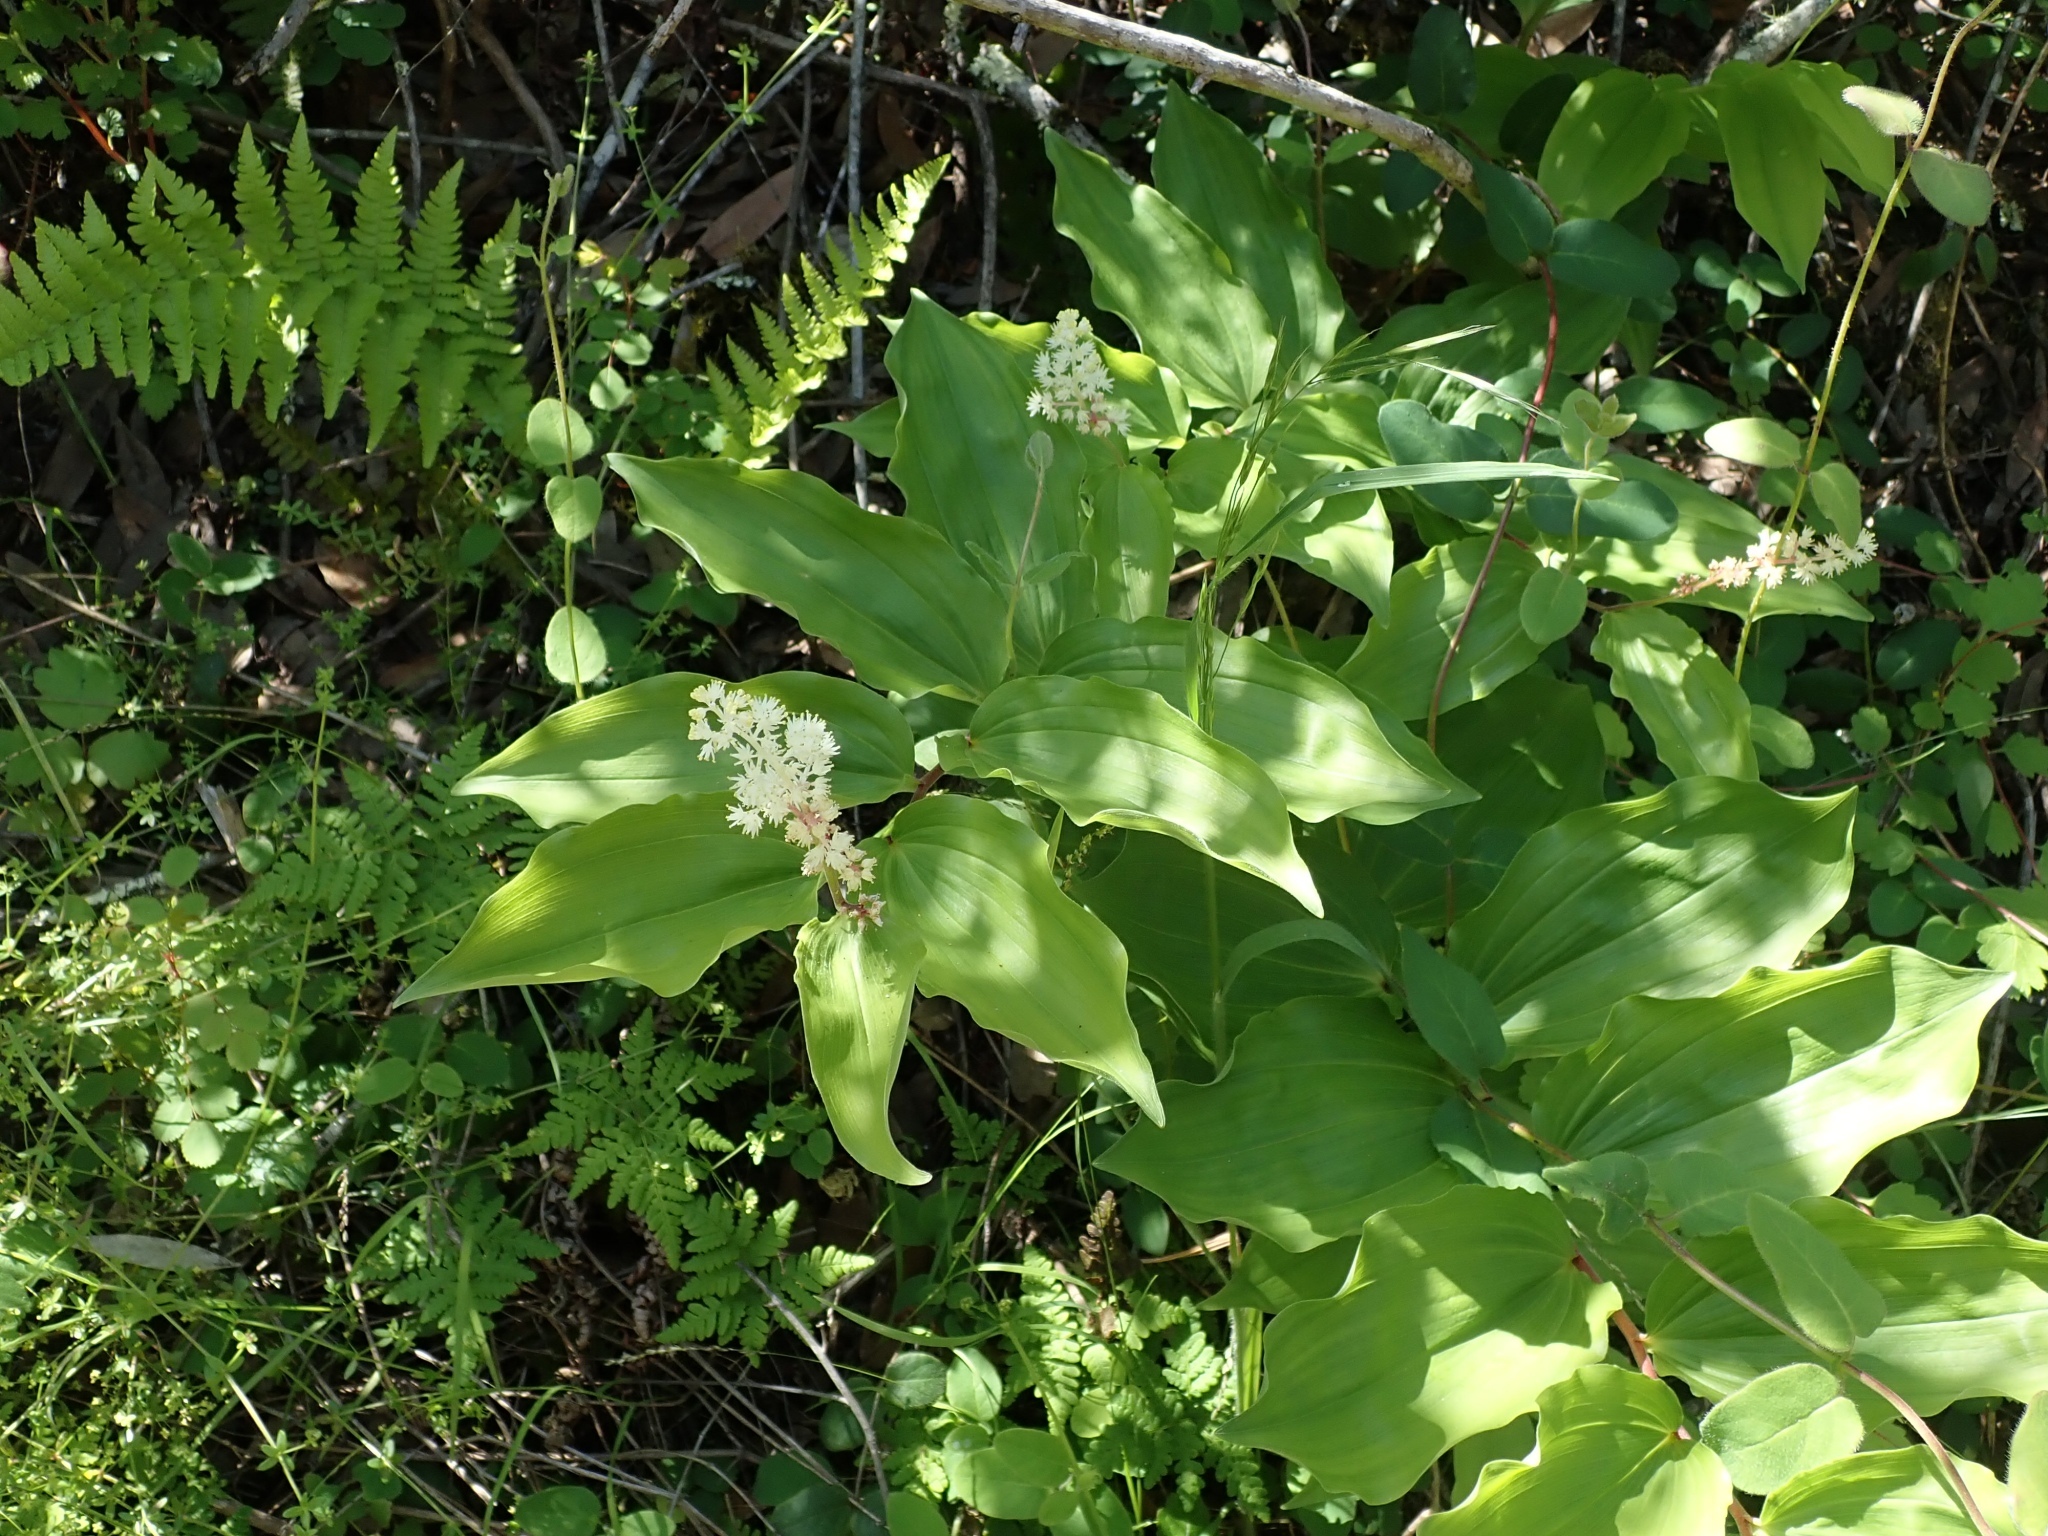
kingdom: Plantae
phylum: Tracheophyta
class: Liliopsida
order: Asparagales
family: Asparagaceae
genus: Maianthemum
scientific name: Maianthemum racemosum
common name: False spikenard
